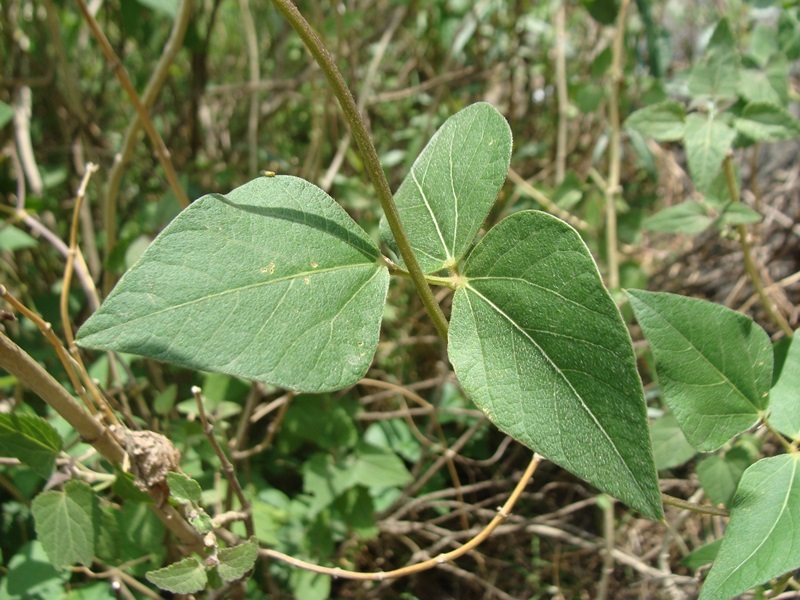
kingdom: Plantae
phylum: Tracheophyta
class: Magnoliopsida
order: Fabales
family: Fabaceae
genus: Phaseolus
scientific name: Phaseolus coccineus
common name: Runner bean
